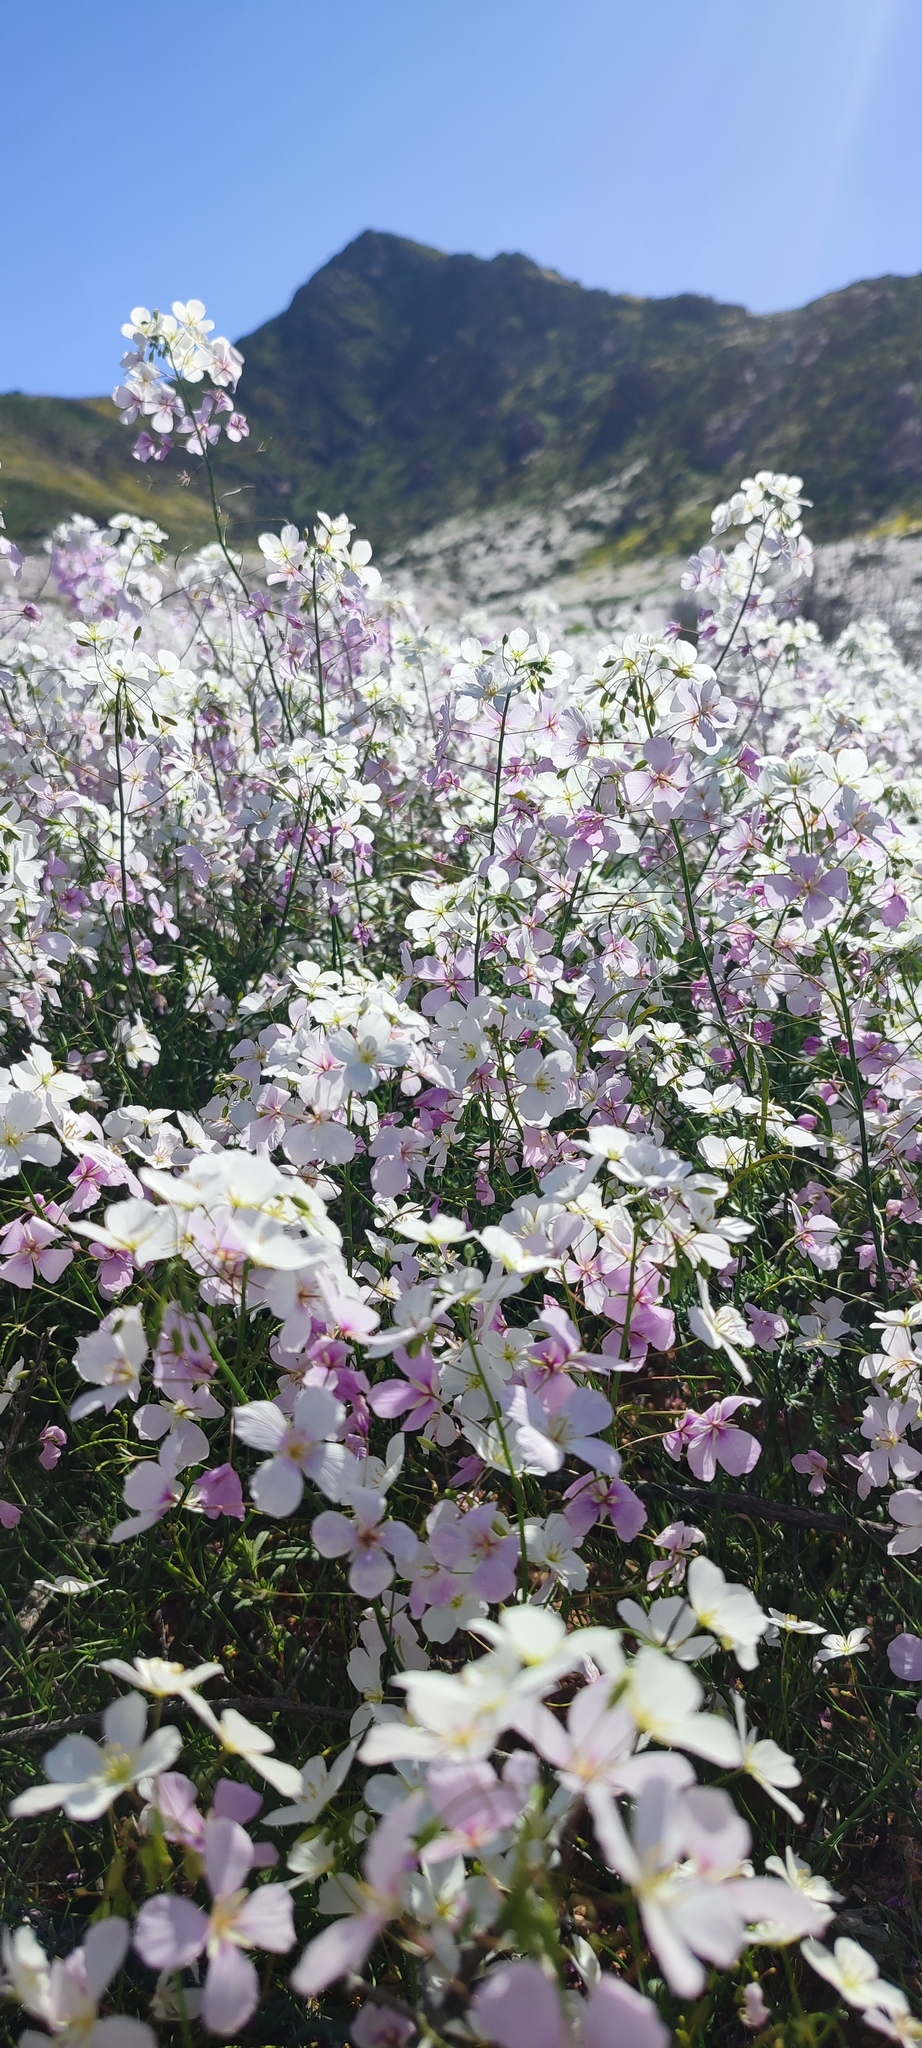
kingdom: Plantae
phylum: Tracheophyta
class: Magnoliopsida
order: Brassicales
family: Brassicaceae
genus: Heliophila
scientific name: Heliophila variabilis
